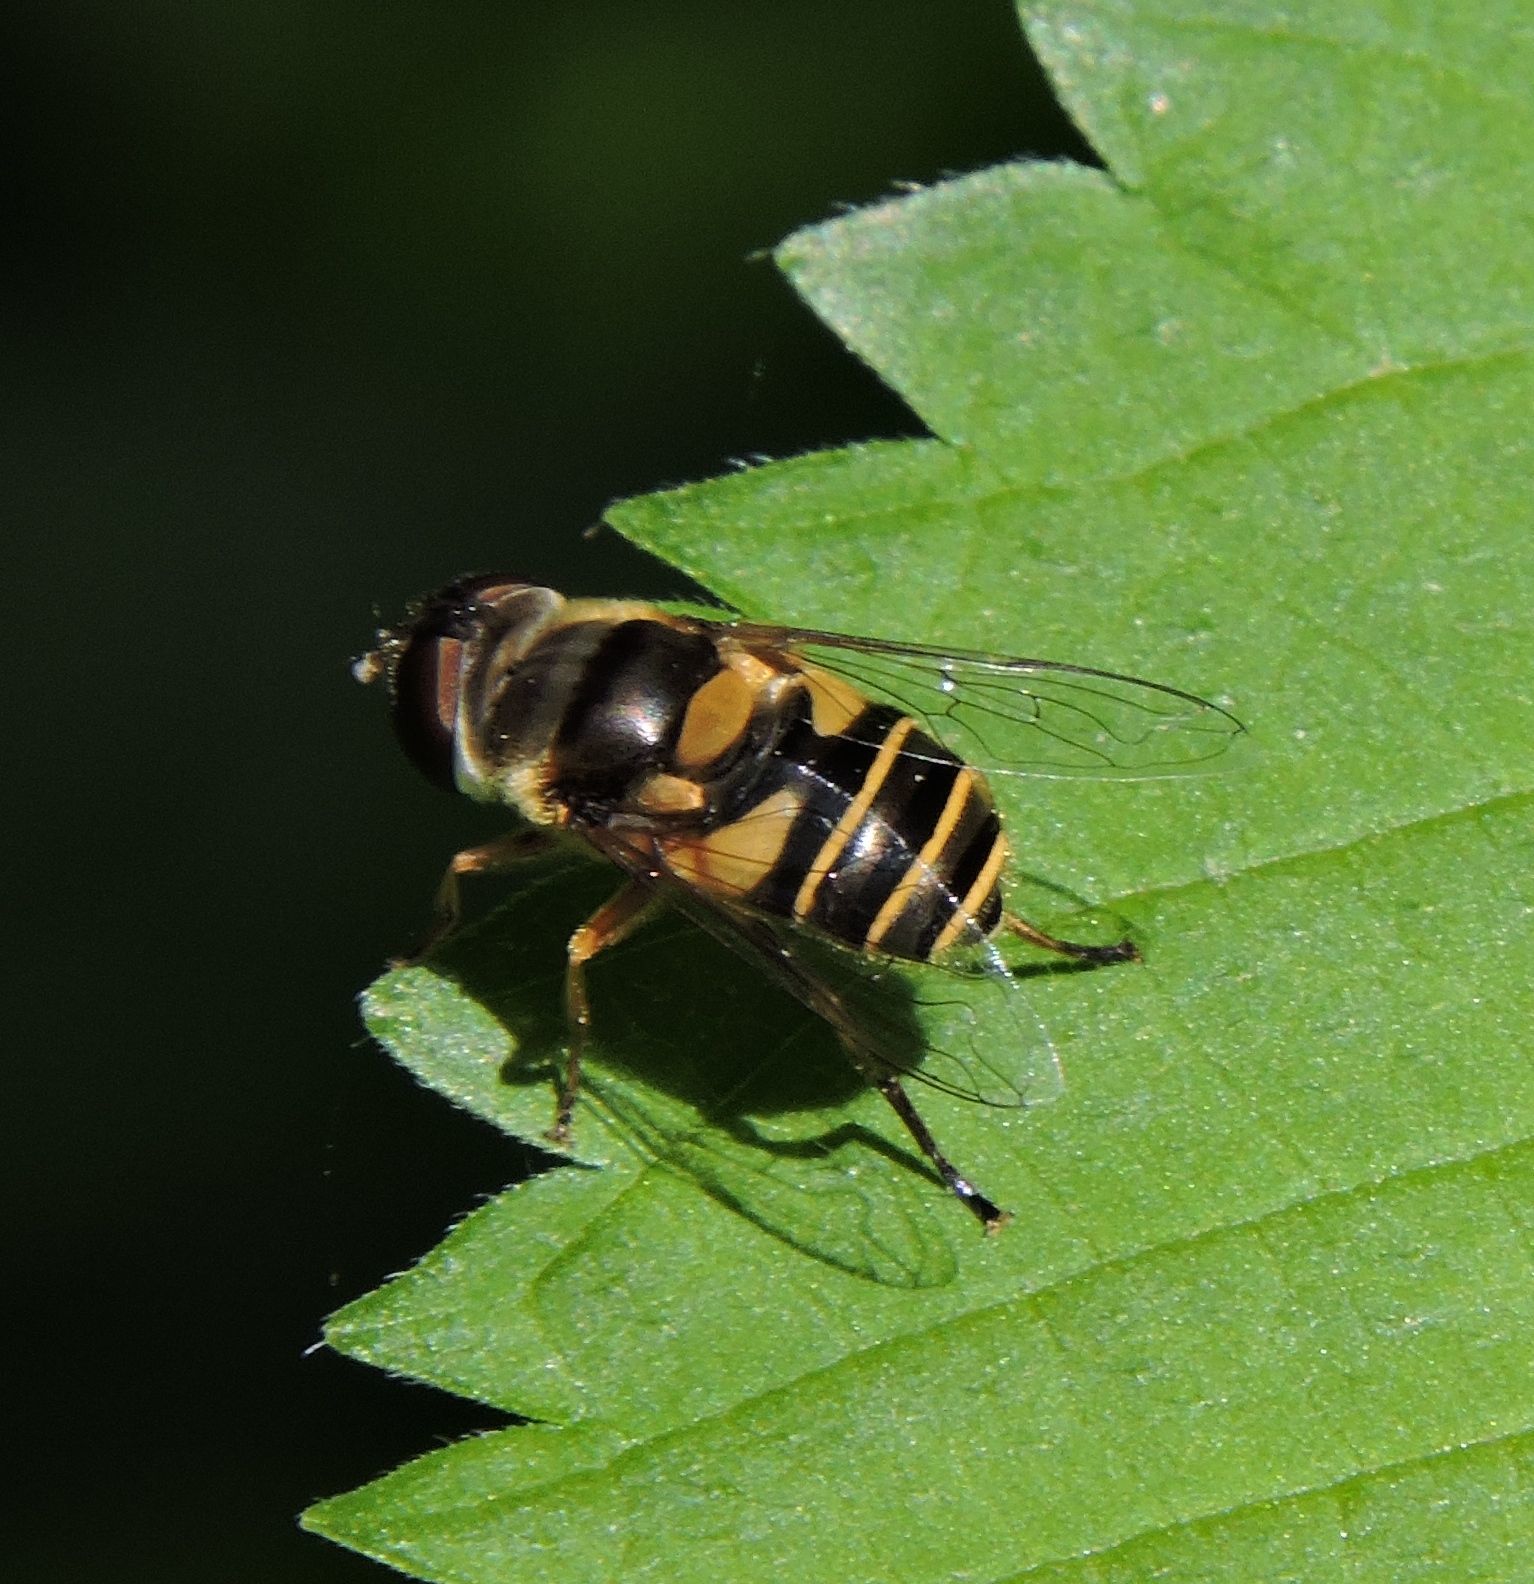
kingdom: Animalia
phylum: Arthropoda
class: Insecta
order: Diptera
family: Syrphidae
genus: Eristalis
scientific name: Eristalis transversa
